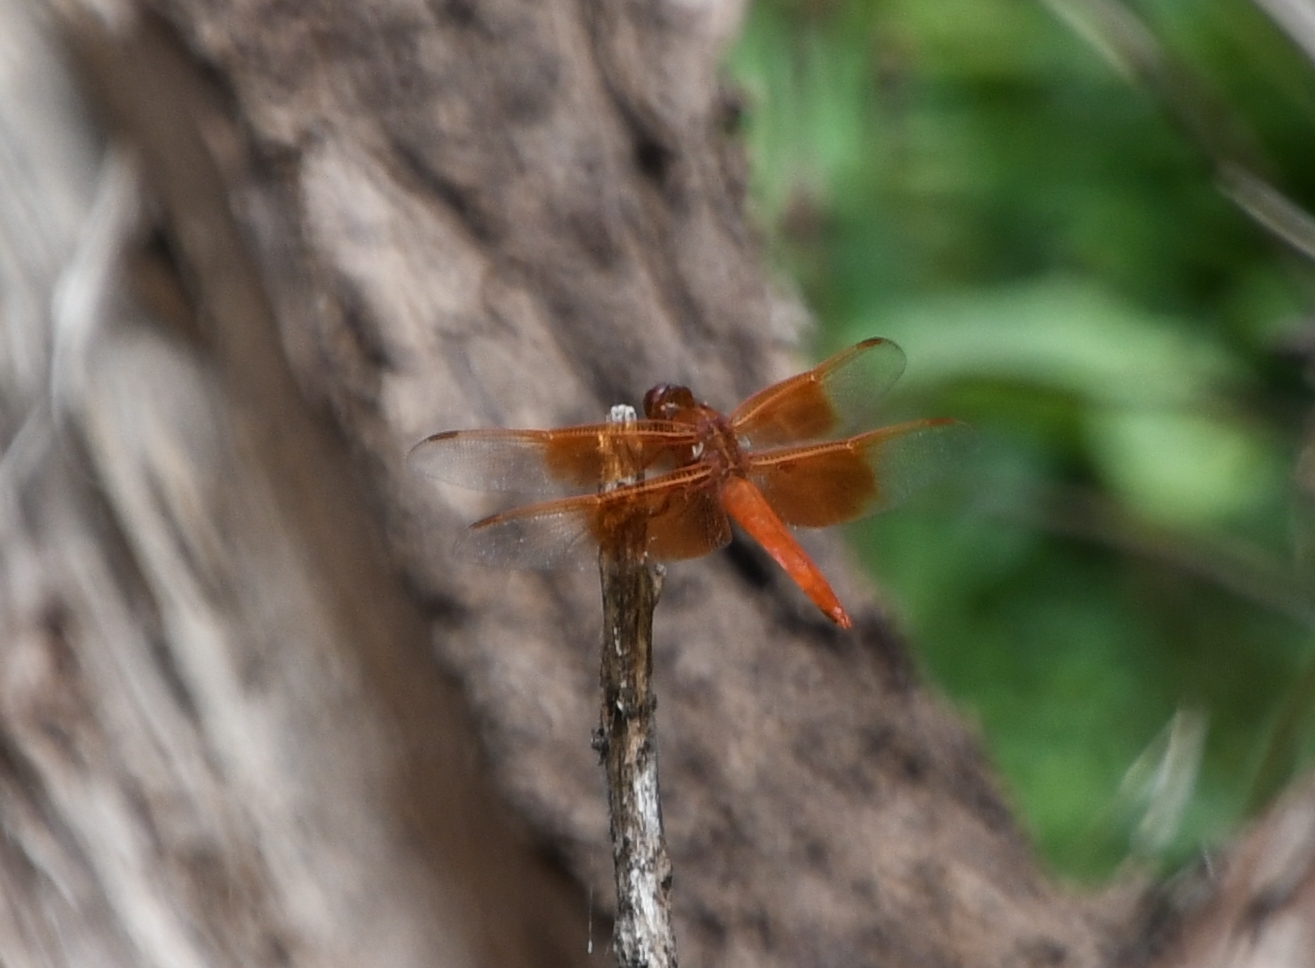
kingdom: Animalia
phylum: Arthropoda
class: Insecta
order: Odonata
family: Libellulidae
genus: Libellula
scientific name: Libellula saturata
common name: Flame skimmer
